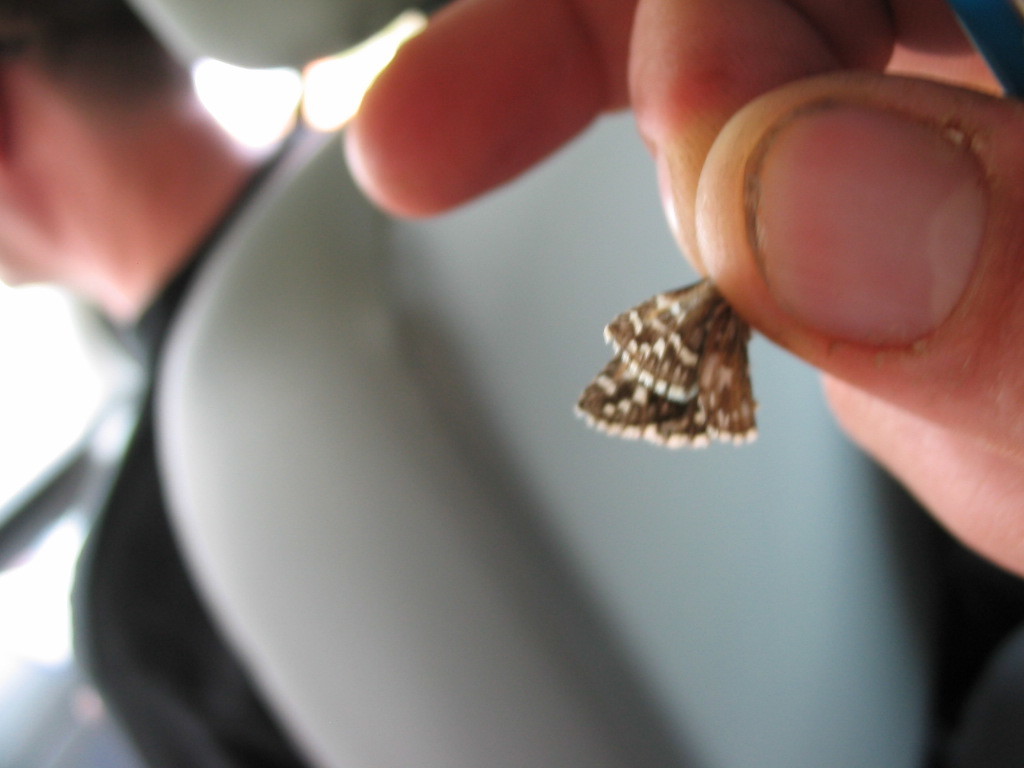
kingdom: Animalia
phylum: Arthropoda
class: Insecta
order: Lepidoptera
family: Hesperiidae
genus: Pyrgus
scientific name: Pyrgus malvae
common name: Grizzled skipper
